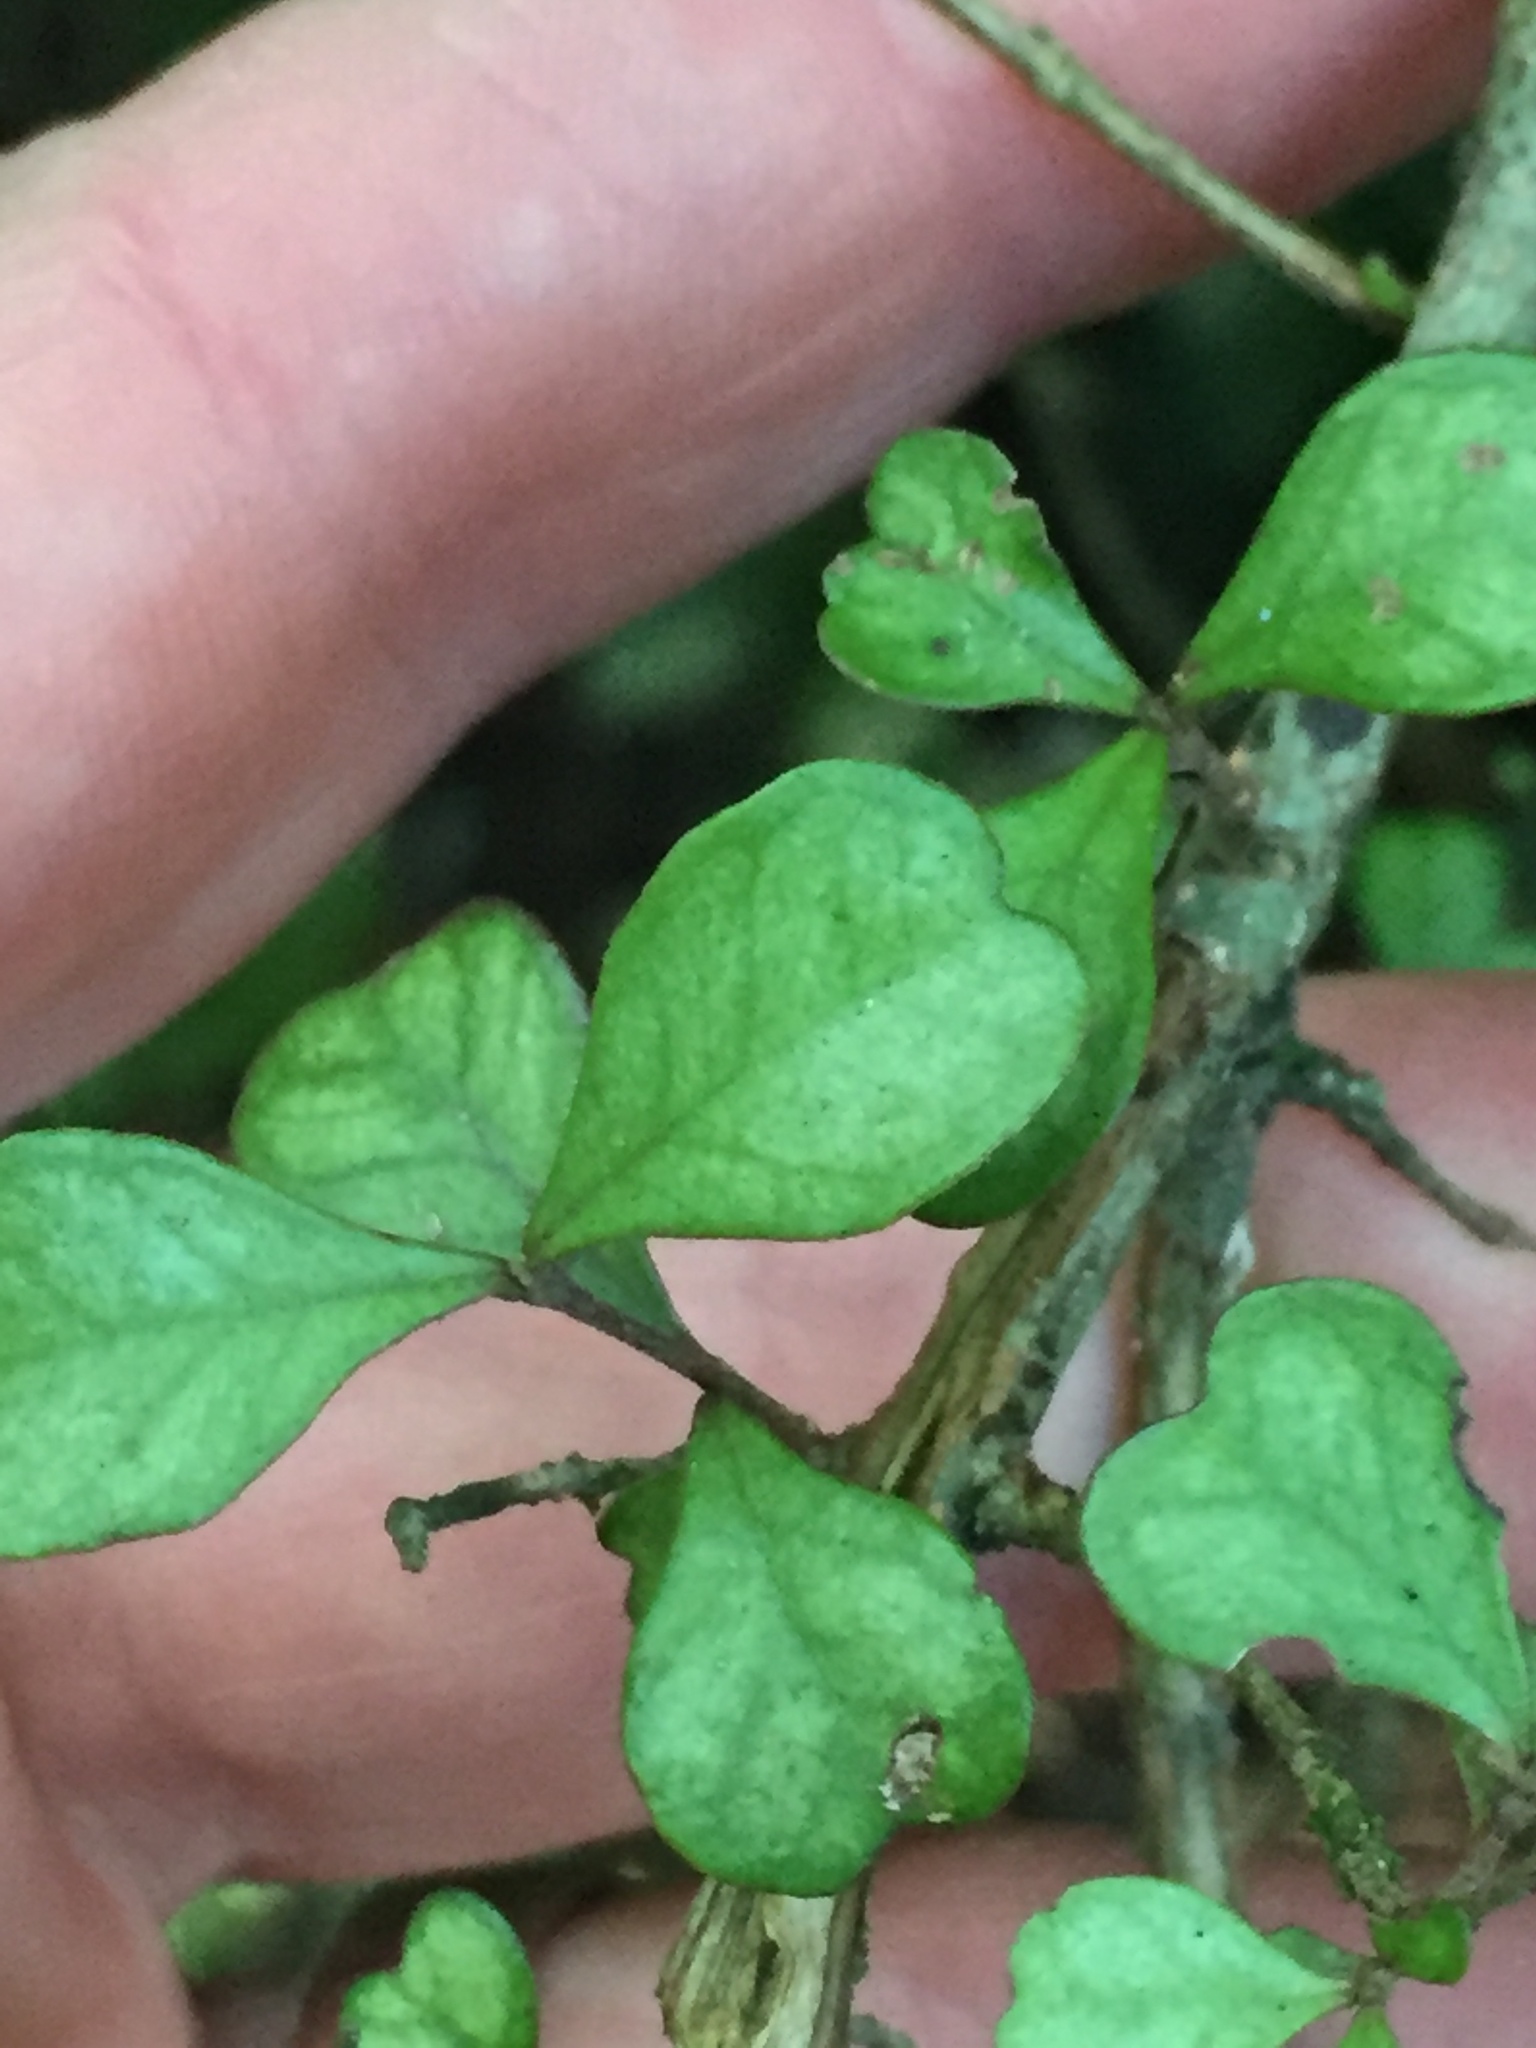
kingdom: Plantae
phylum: Tracheophyta
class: Magnoliopsida
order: Myrtales
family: Myrtaceae
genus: Lophomyrtus
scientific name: Lophomyrtus obcordata
